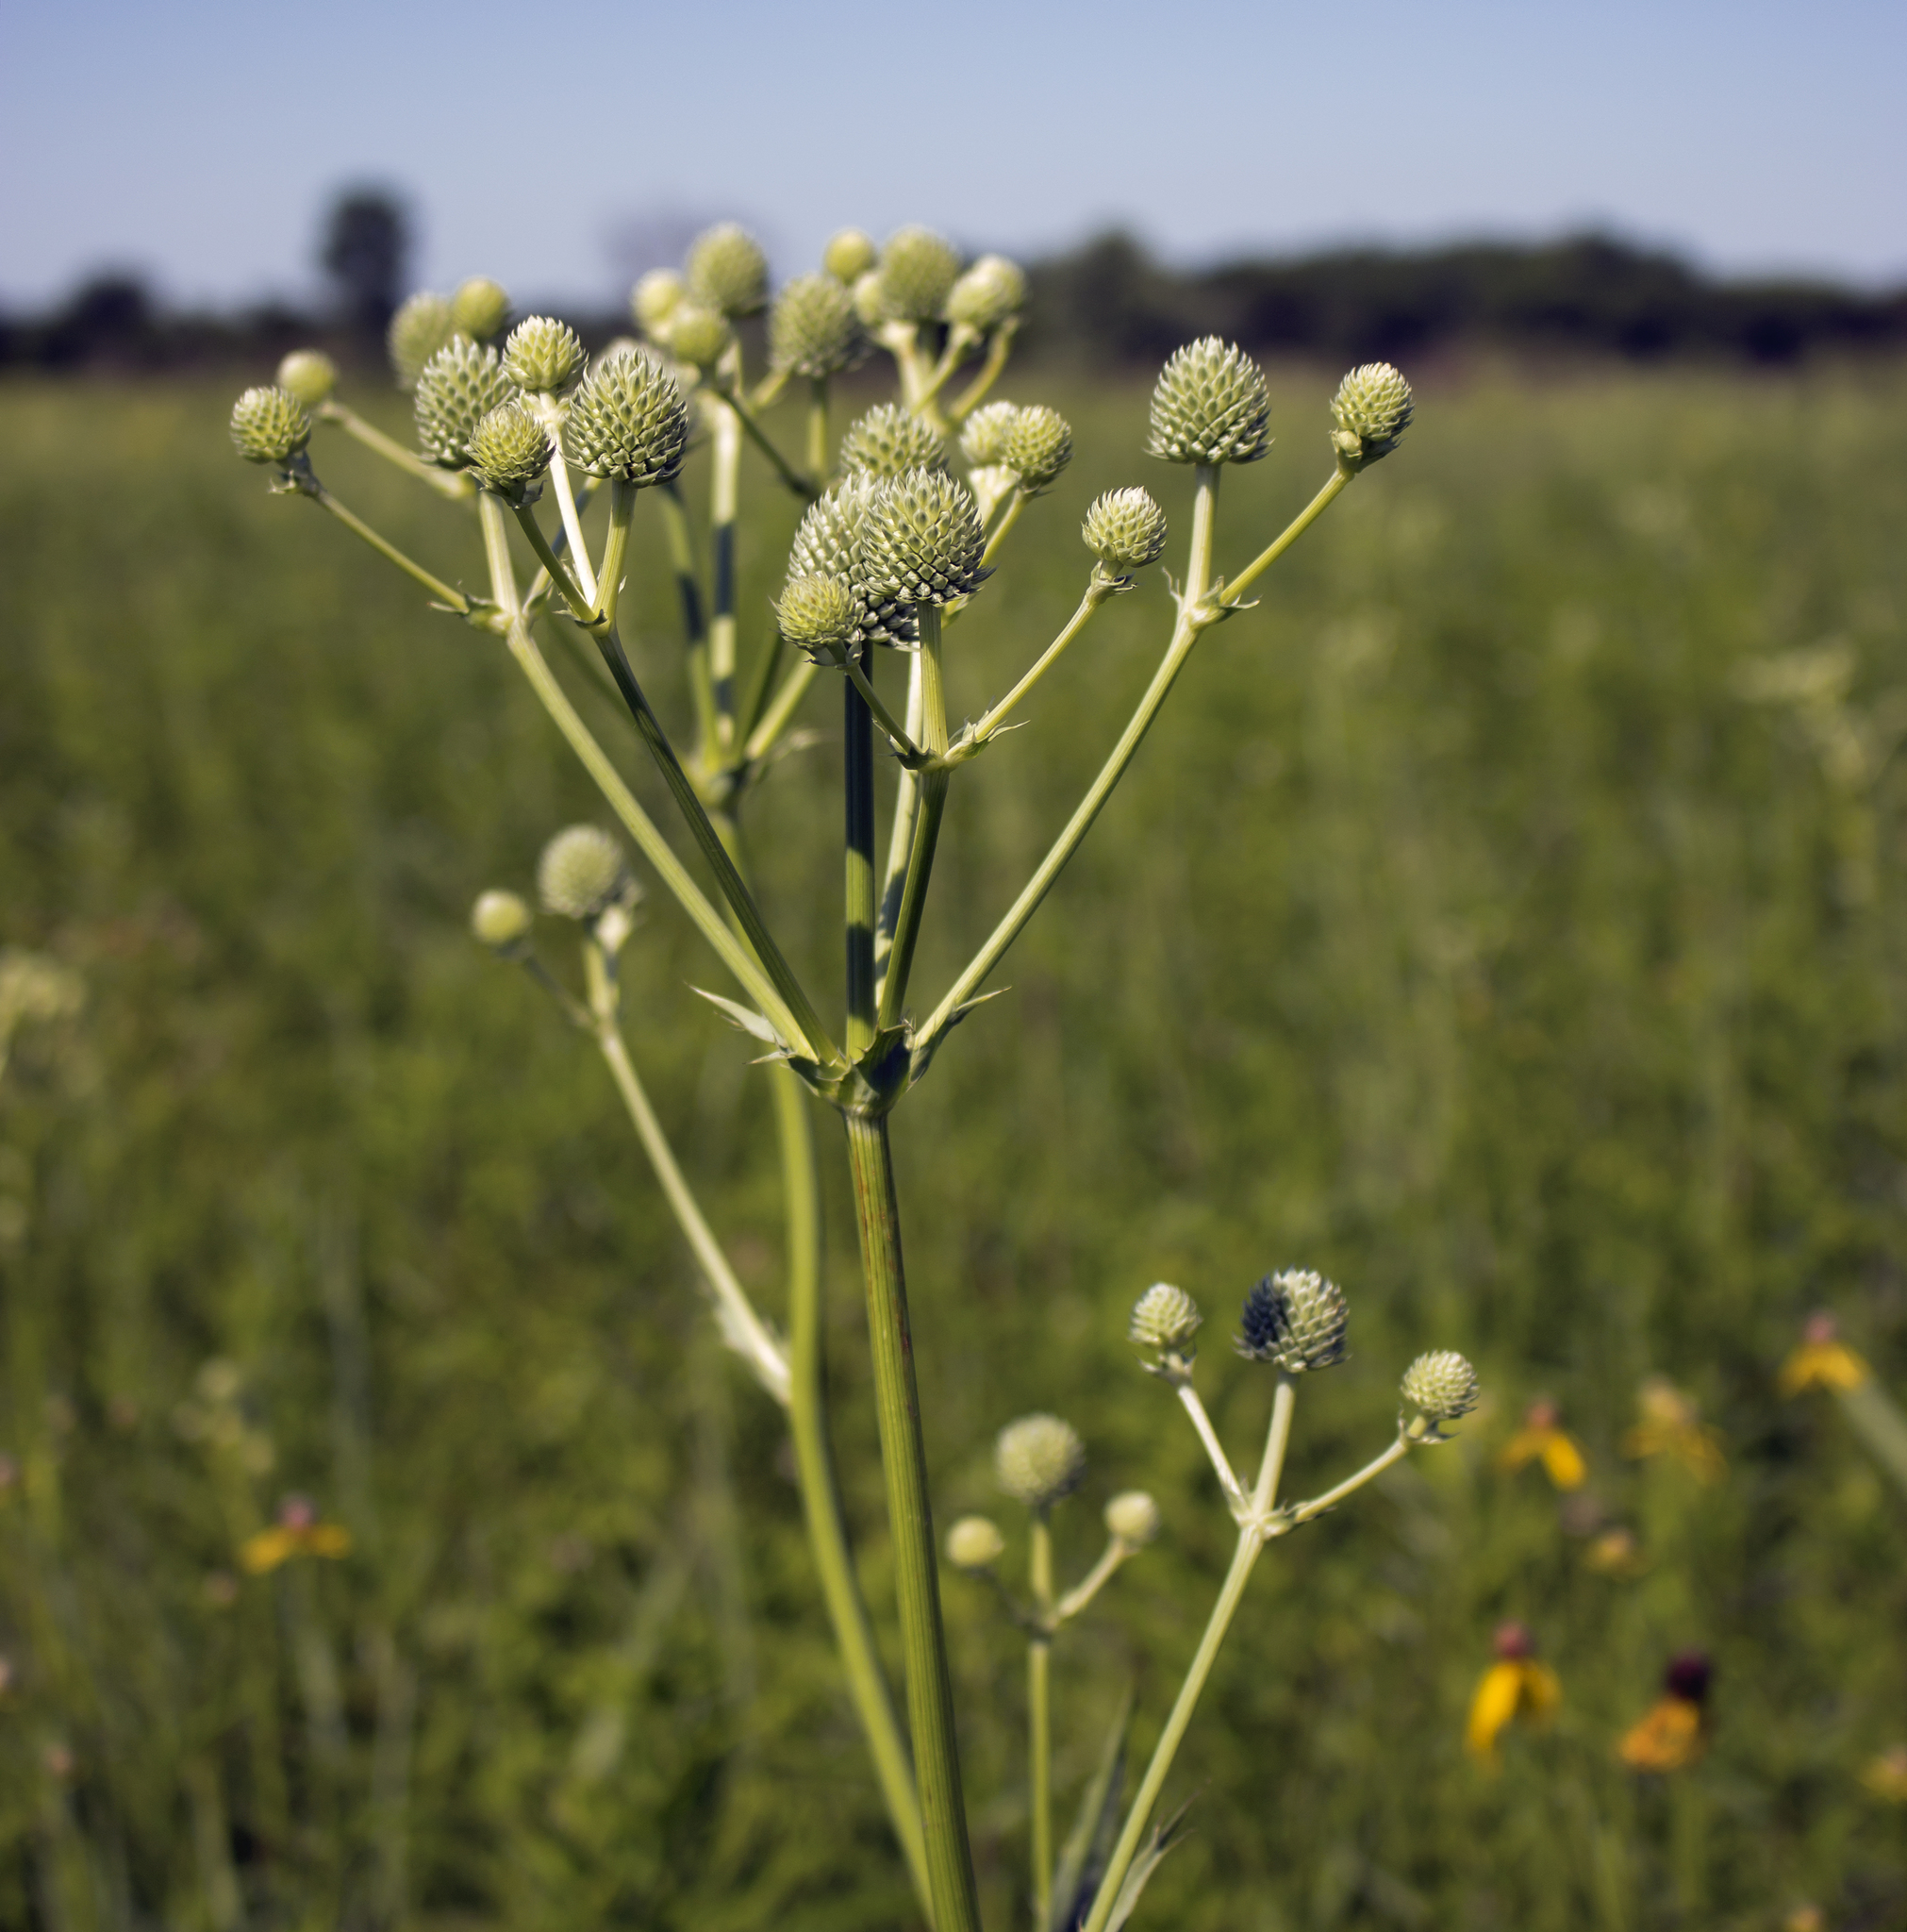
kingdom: Plantae
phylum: Tracheophyta
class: Magnoliopsida
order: Apiales
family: Apiaceae
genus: Eryngium
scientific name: Eryngium yuccifolium
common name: Button eryngo
